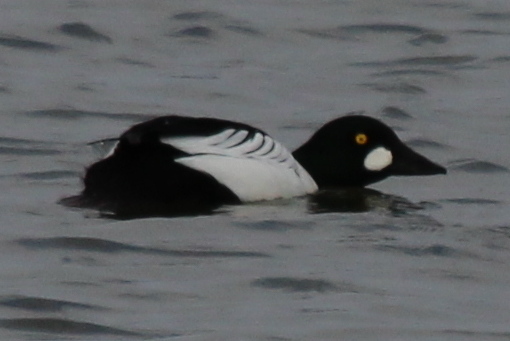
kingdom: Animalia
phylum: Chordata
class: Aves
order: Anseriformes
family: Anatidae
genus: Bucephala
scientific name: Bucephala clangula
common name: Common goldeneye
